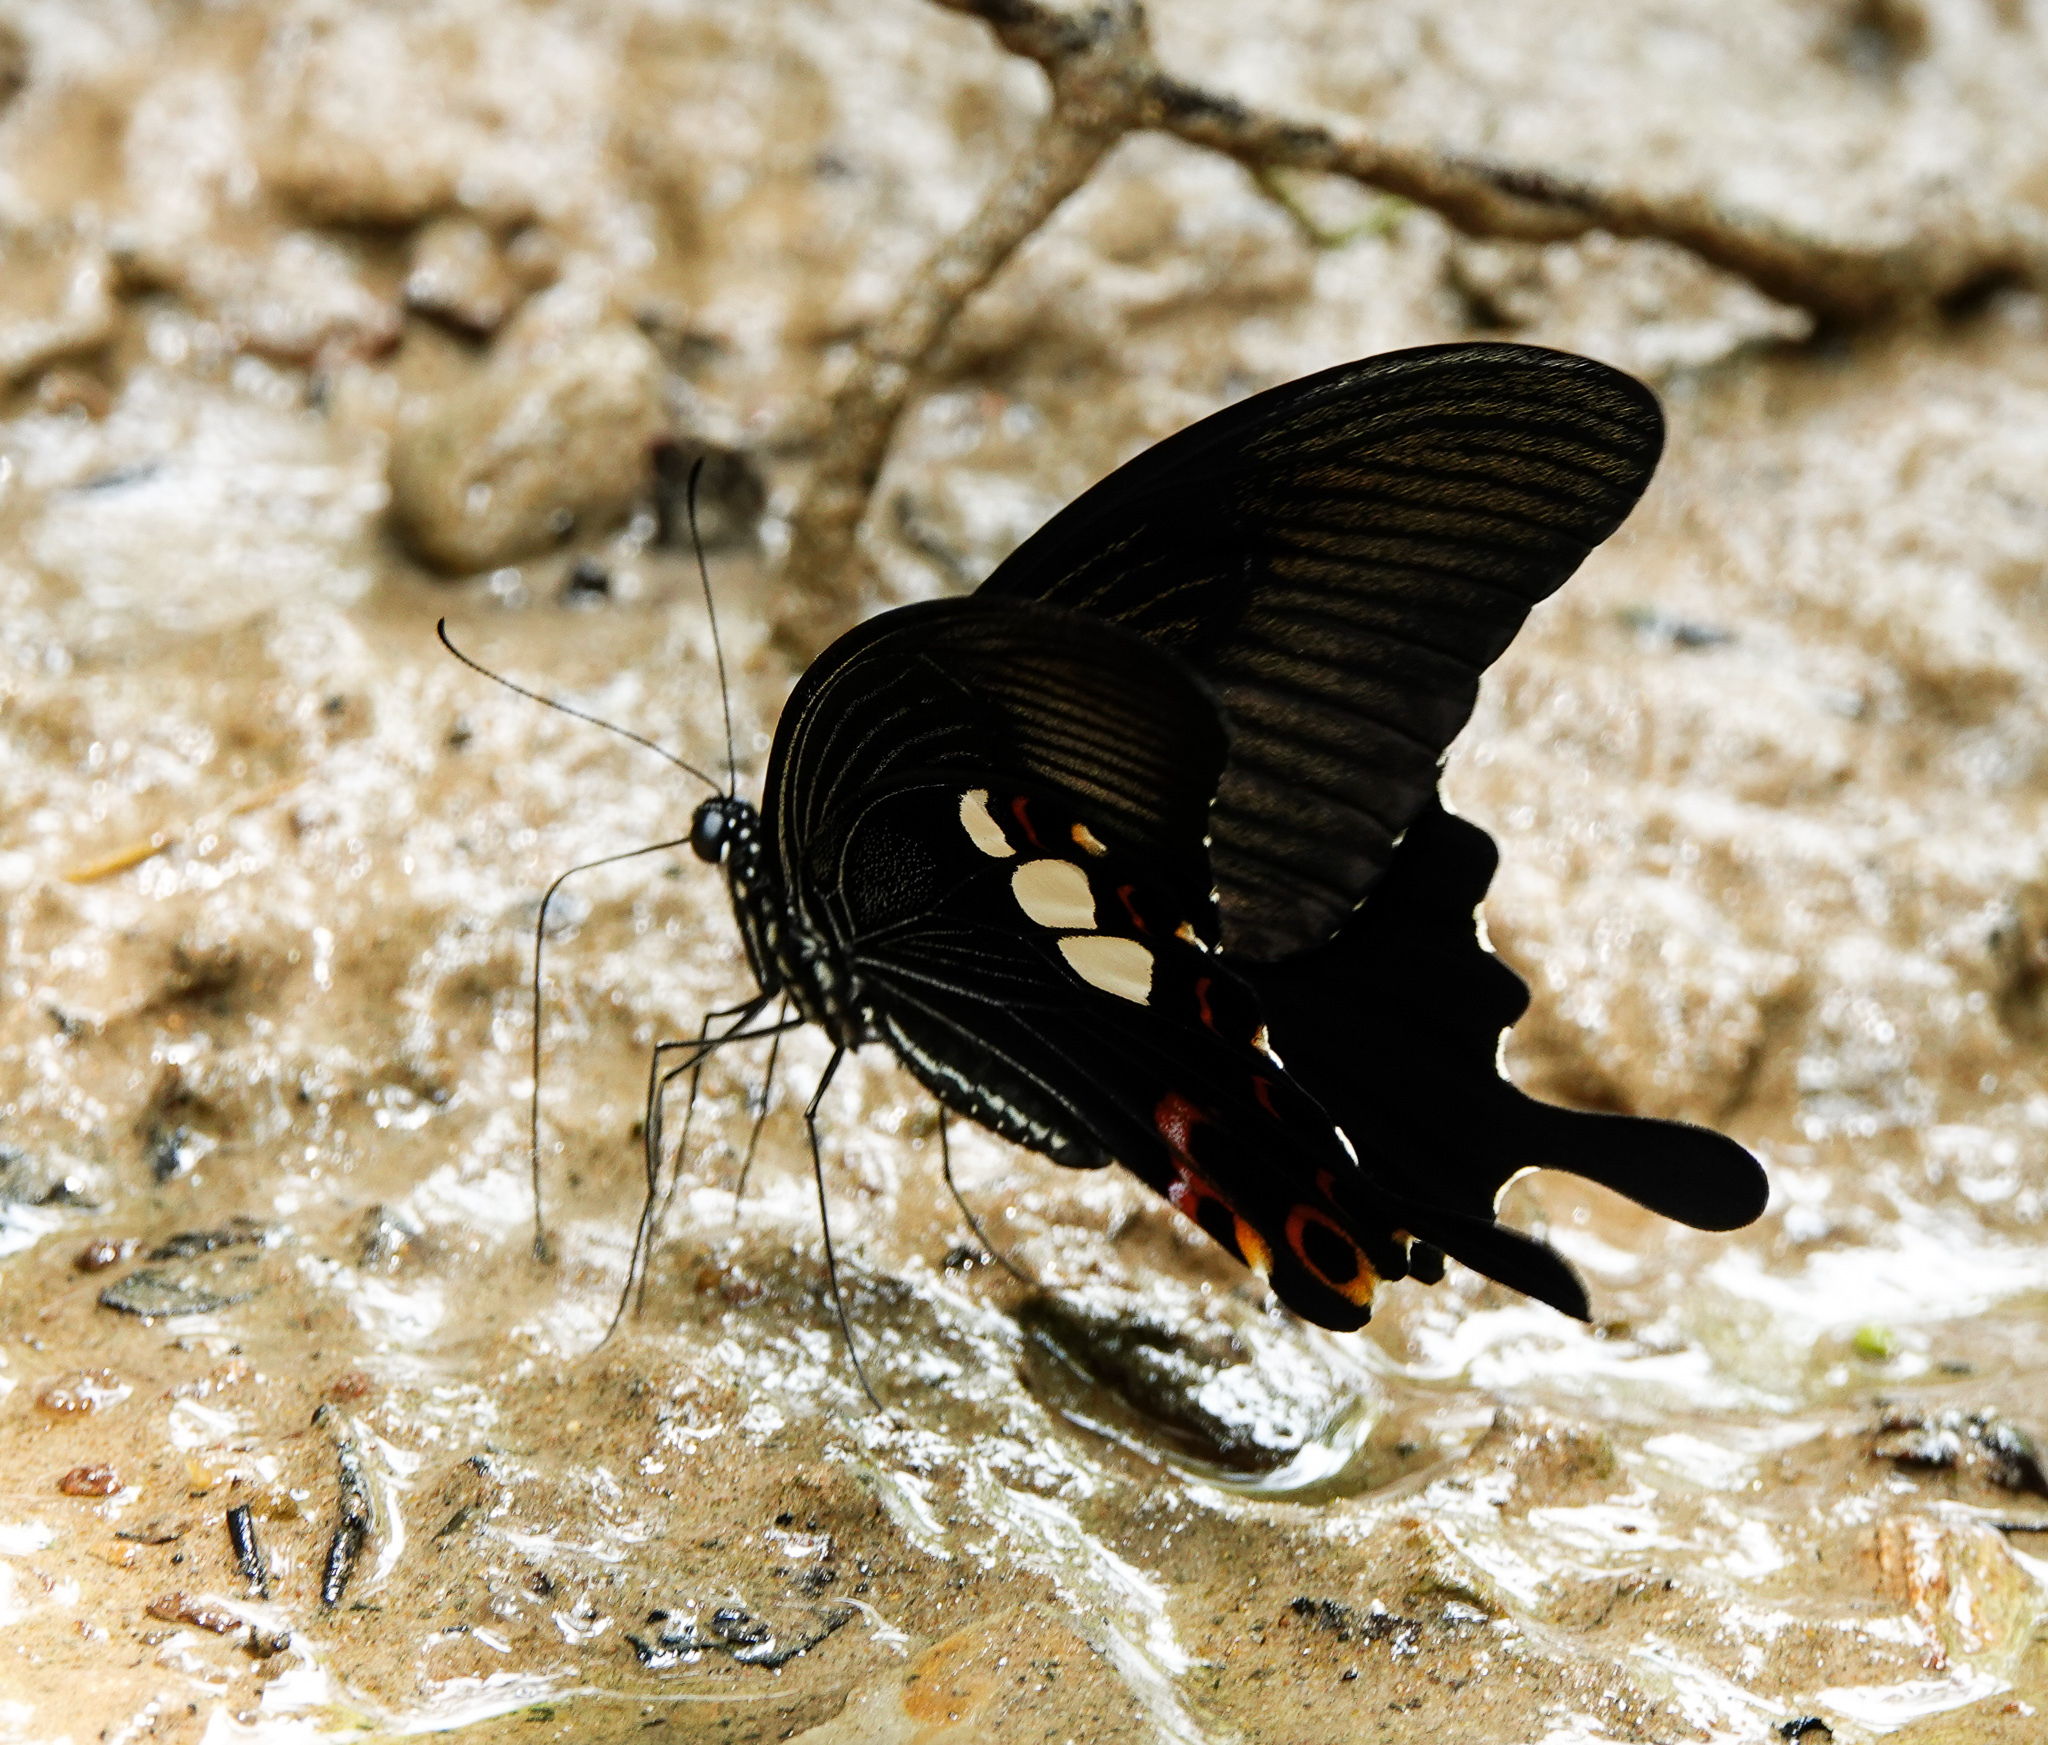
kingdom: Animalia
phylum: Arthropoda
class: Insecta
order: Lepidoptera
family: Papilionidae
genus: Papilio
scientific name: Papilio helenus
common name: Red helen
